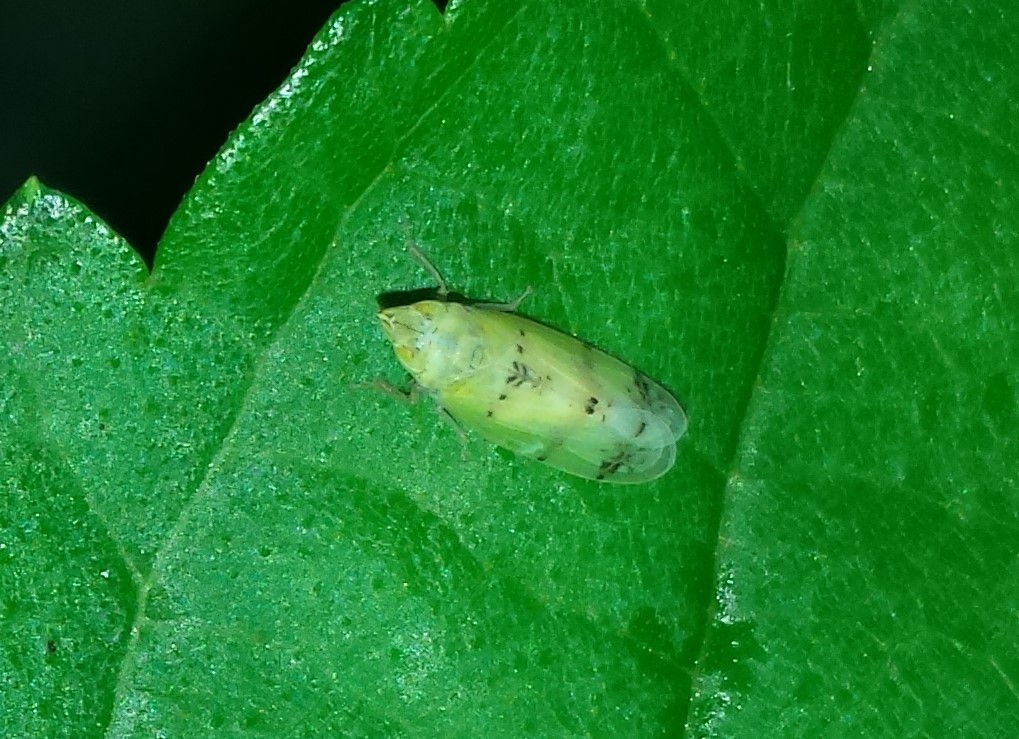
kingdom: Animalia
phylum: Arthropoda
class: Insecta
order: Hemiptera
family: Cicadellidae
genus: Japananus
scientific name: Japananus hyalinus
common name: The japanese maple leafhopper
